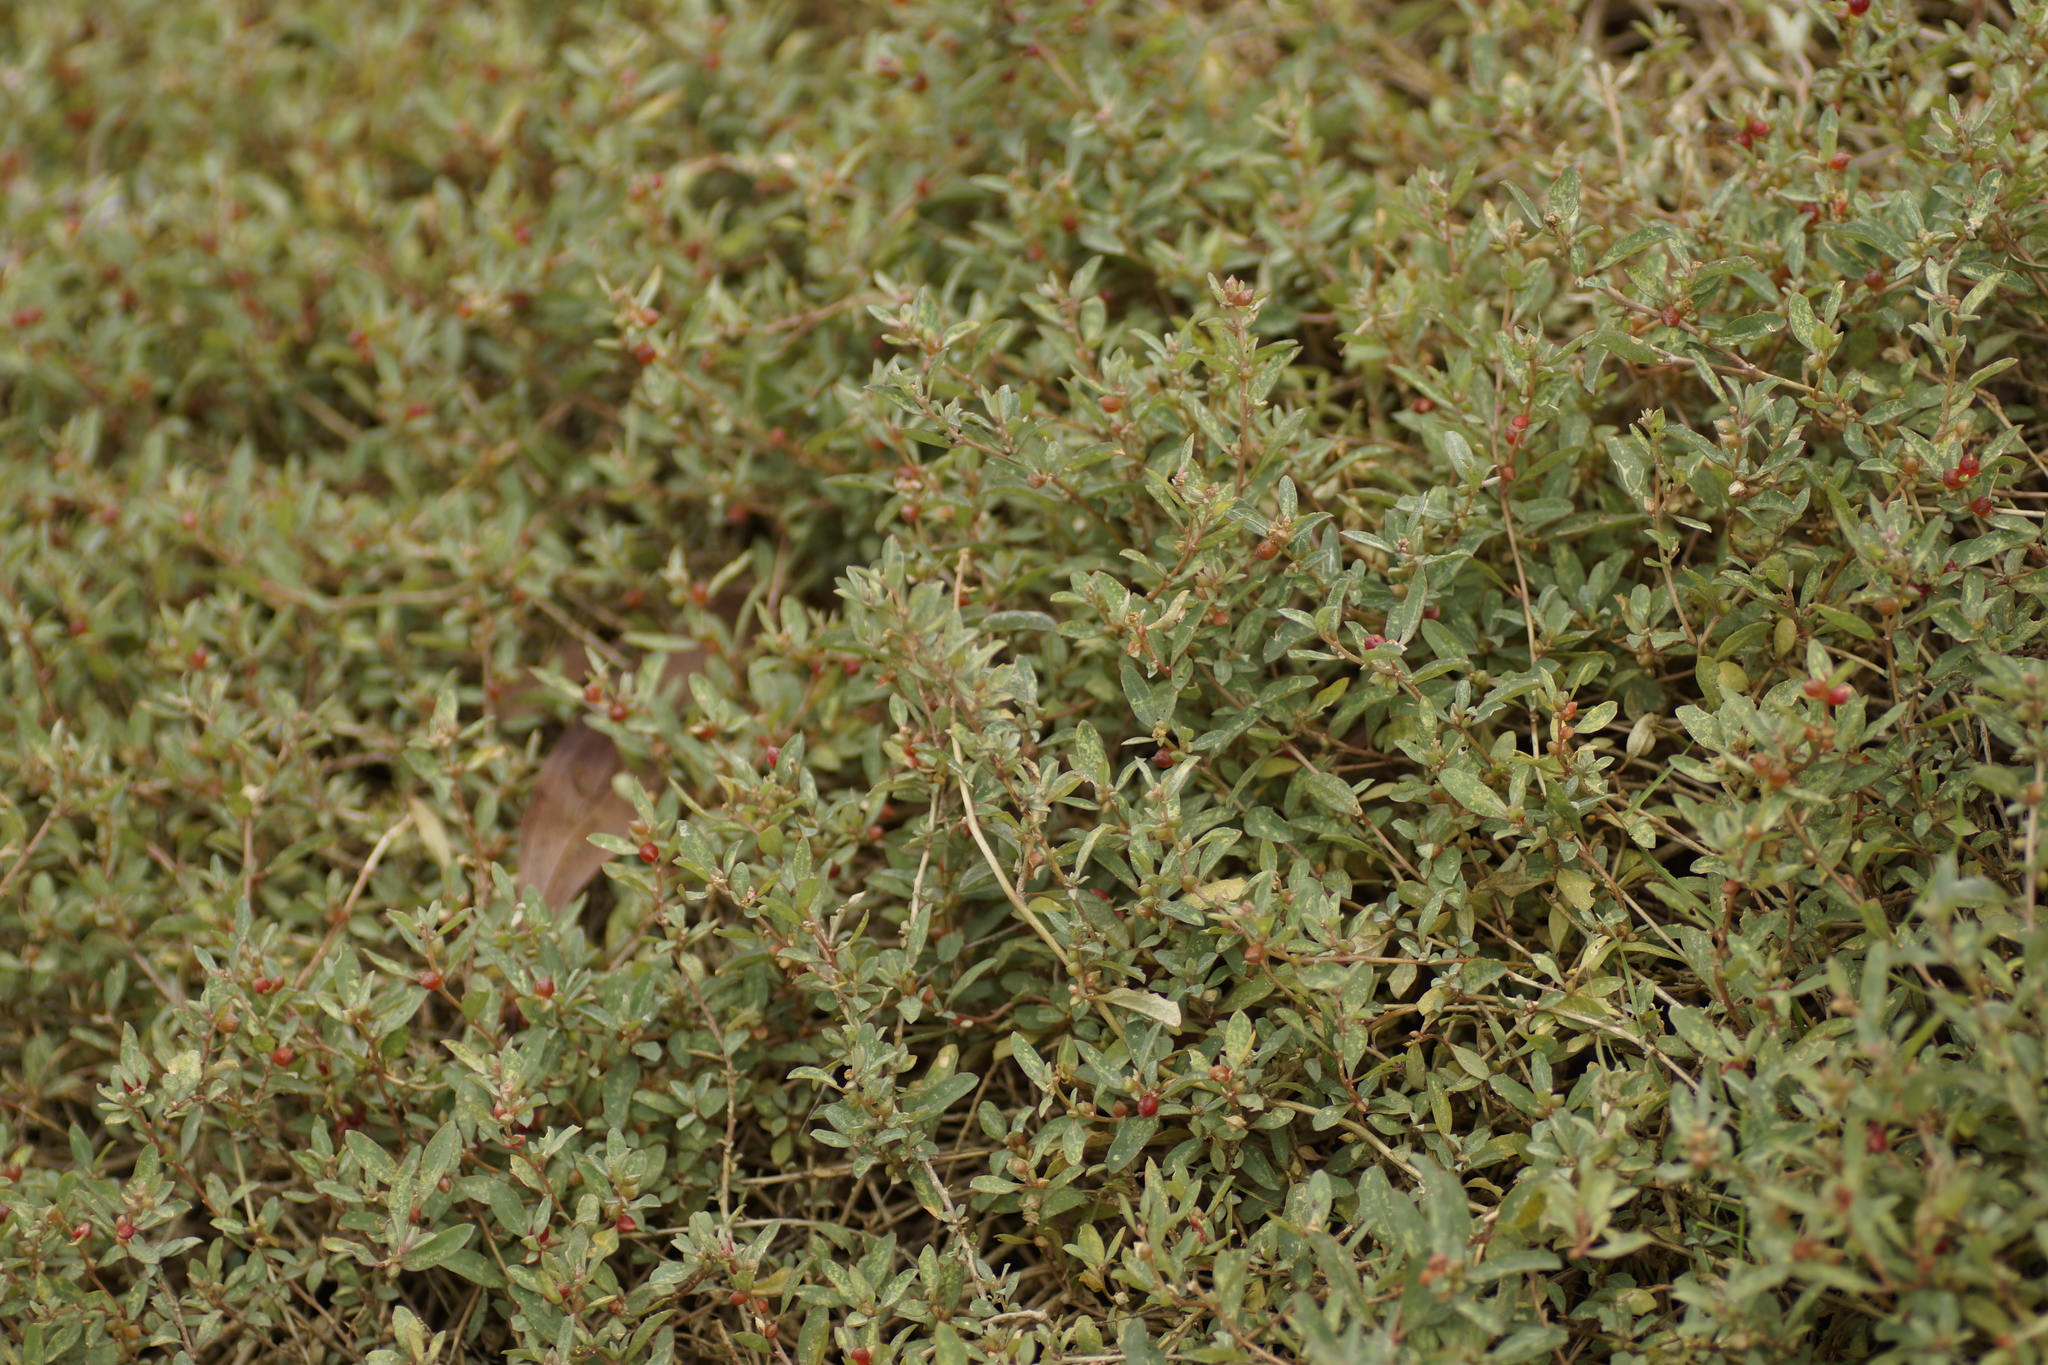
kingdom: Plantae
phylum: Tracheophyta
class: Magnoliopsida
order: Caryophyllales
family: Amaranthaceae
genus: Atriplex
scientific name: Atriplex semibaccata
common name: Australian saltbush
